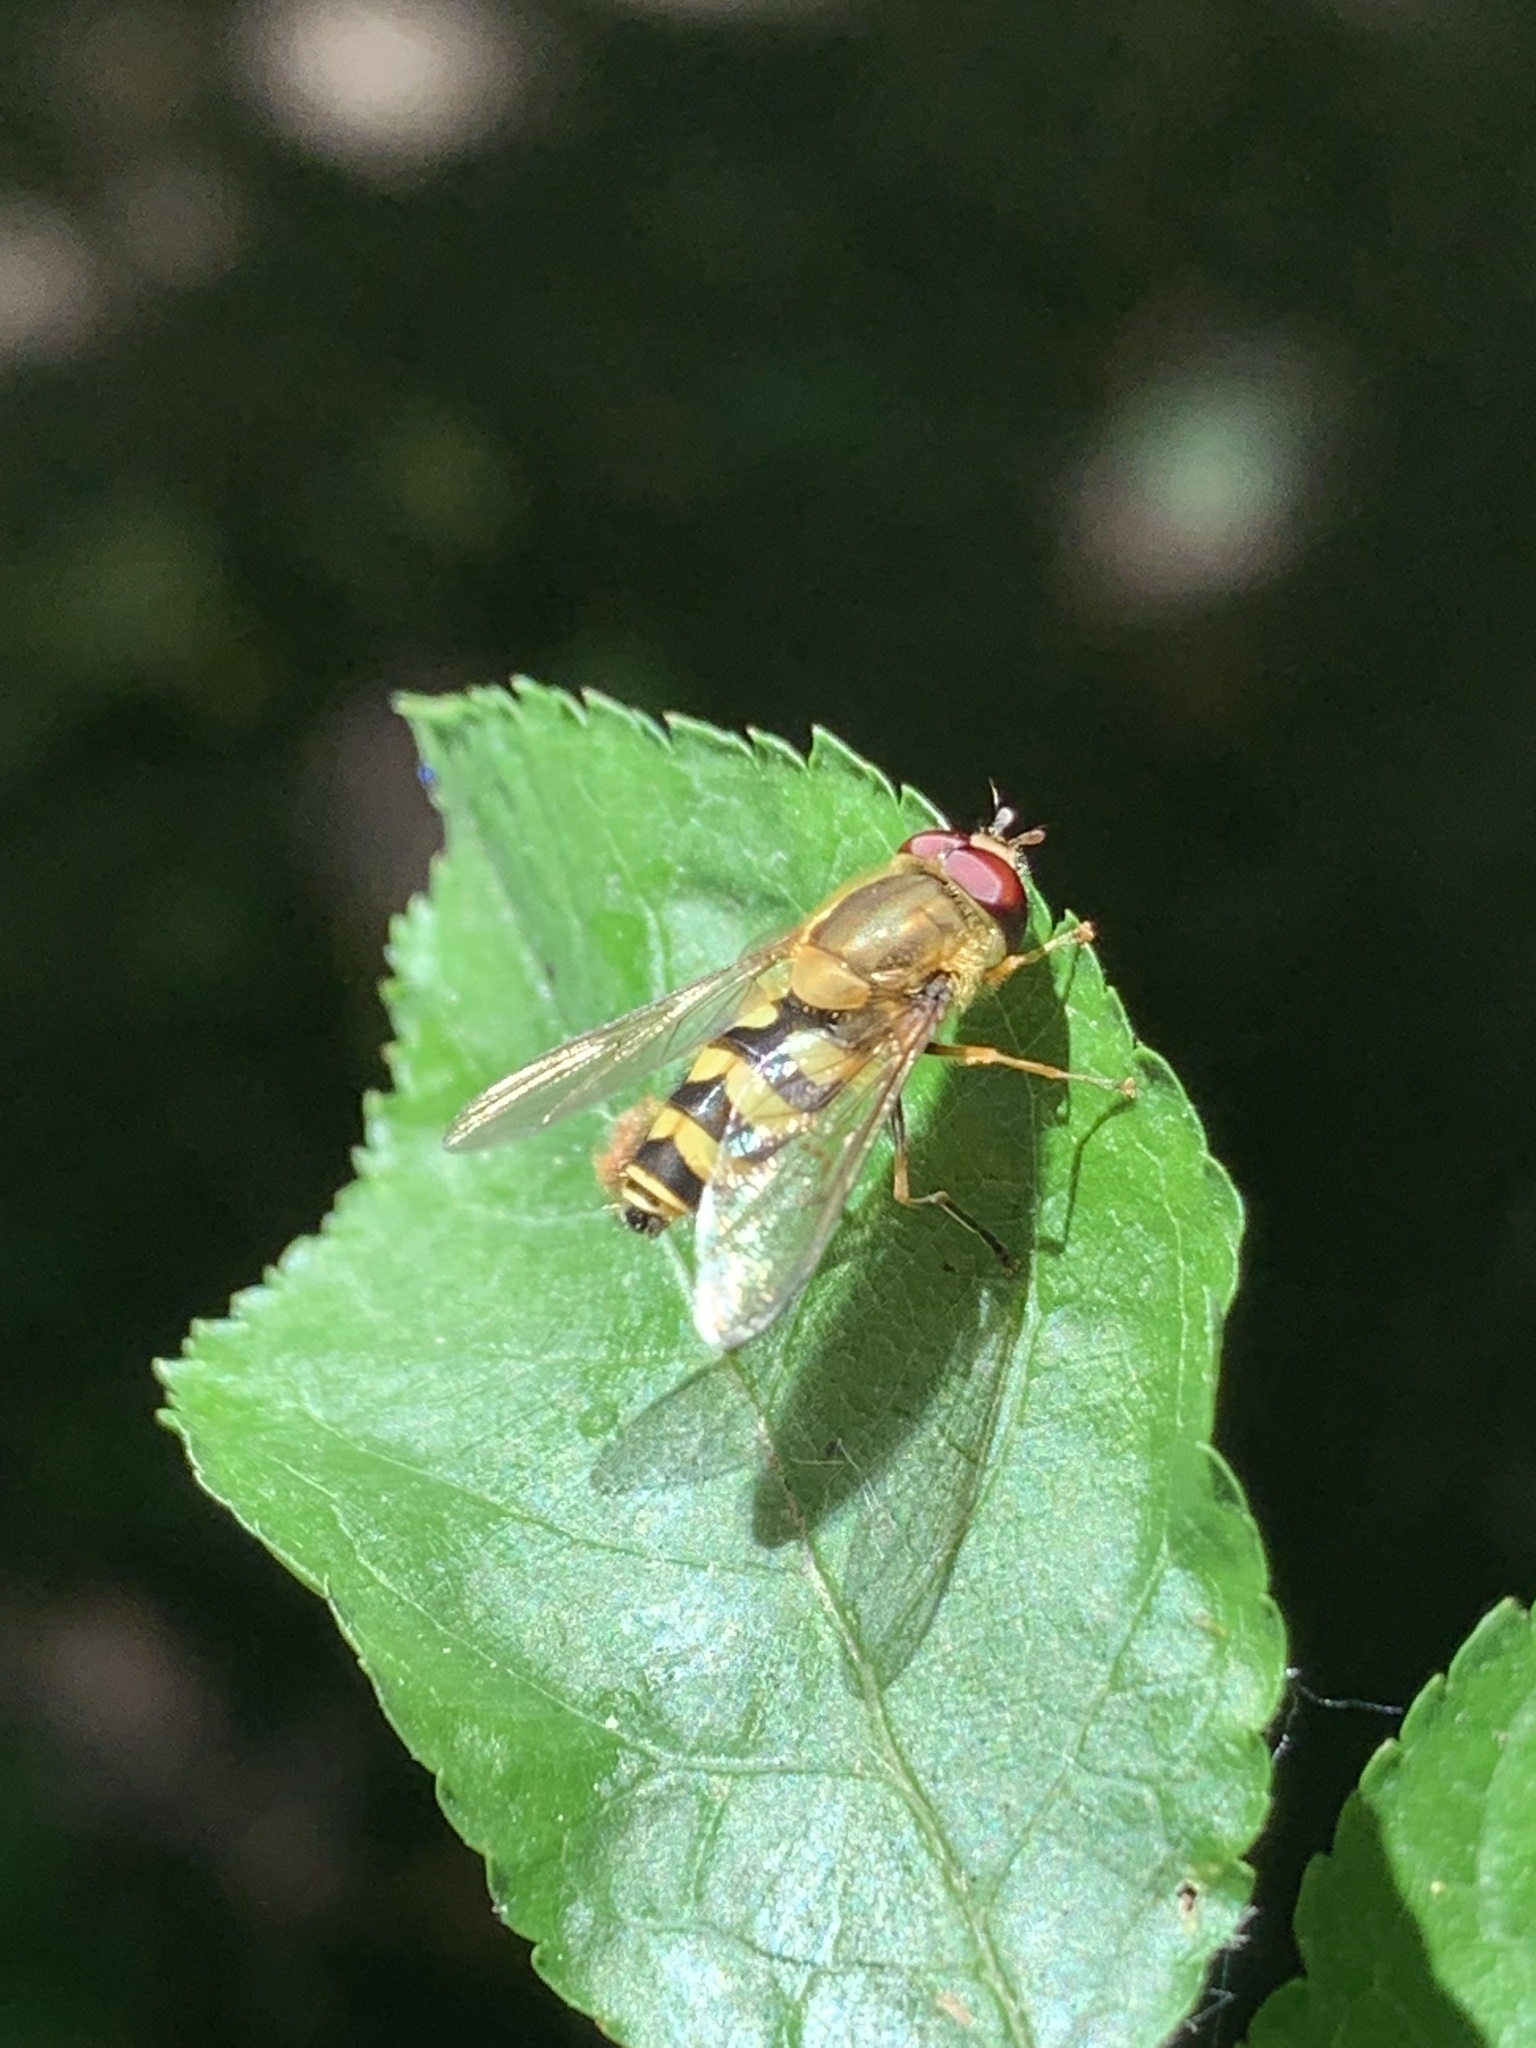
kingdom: Animalia
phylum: Arthropoda
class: Insecta
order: Diptera
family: Syrphidae
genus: Syrphus
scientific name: Syrphus
